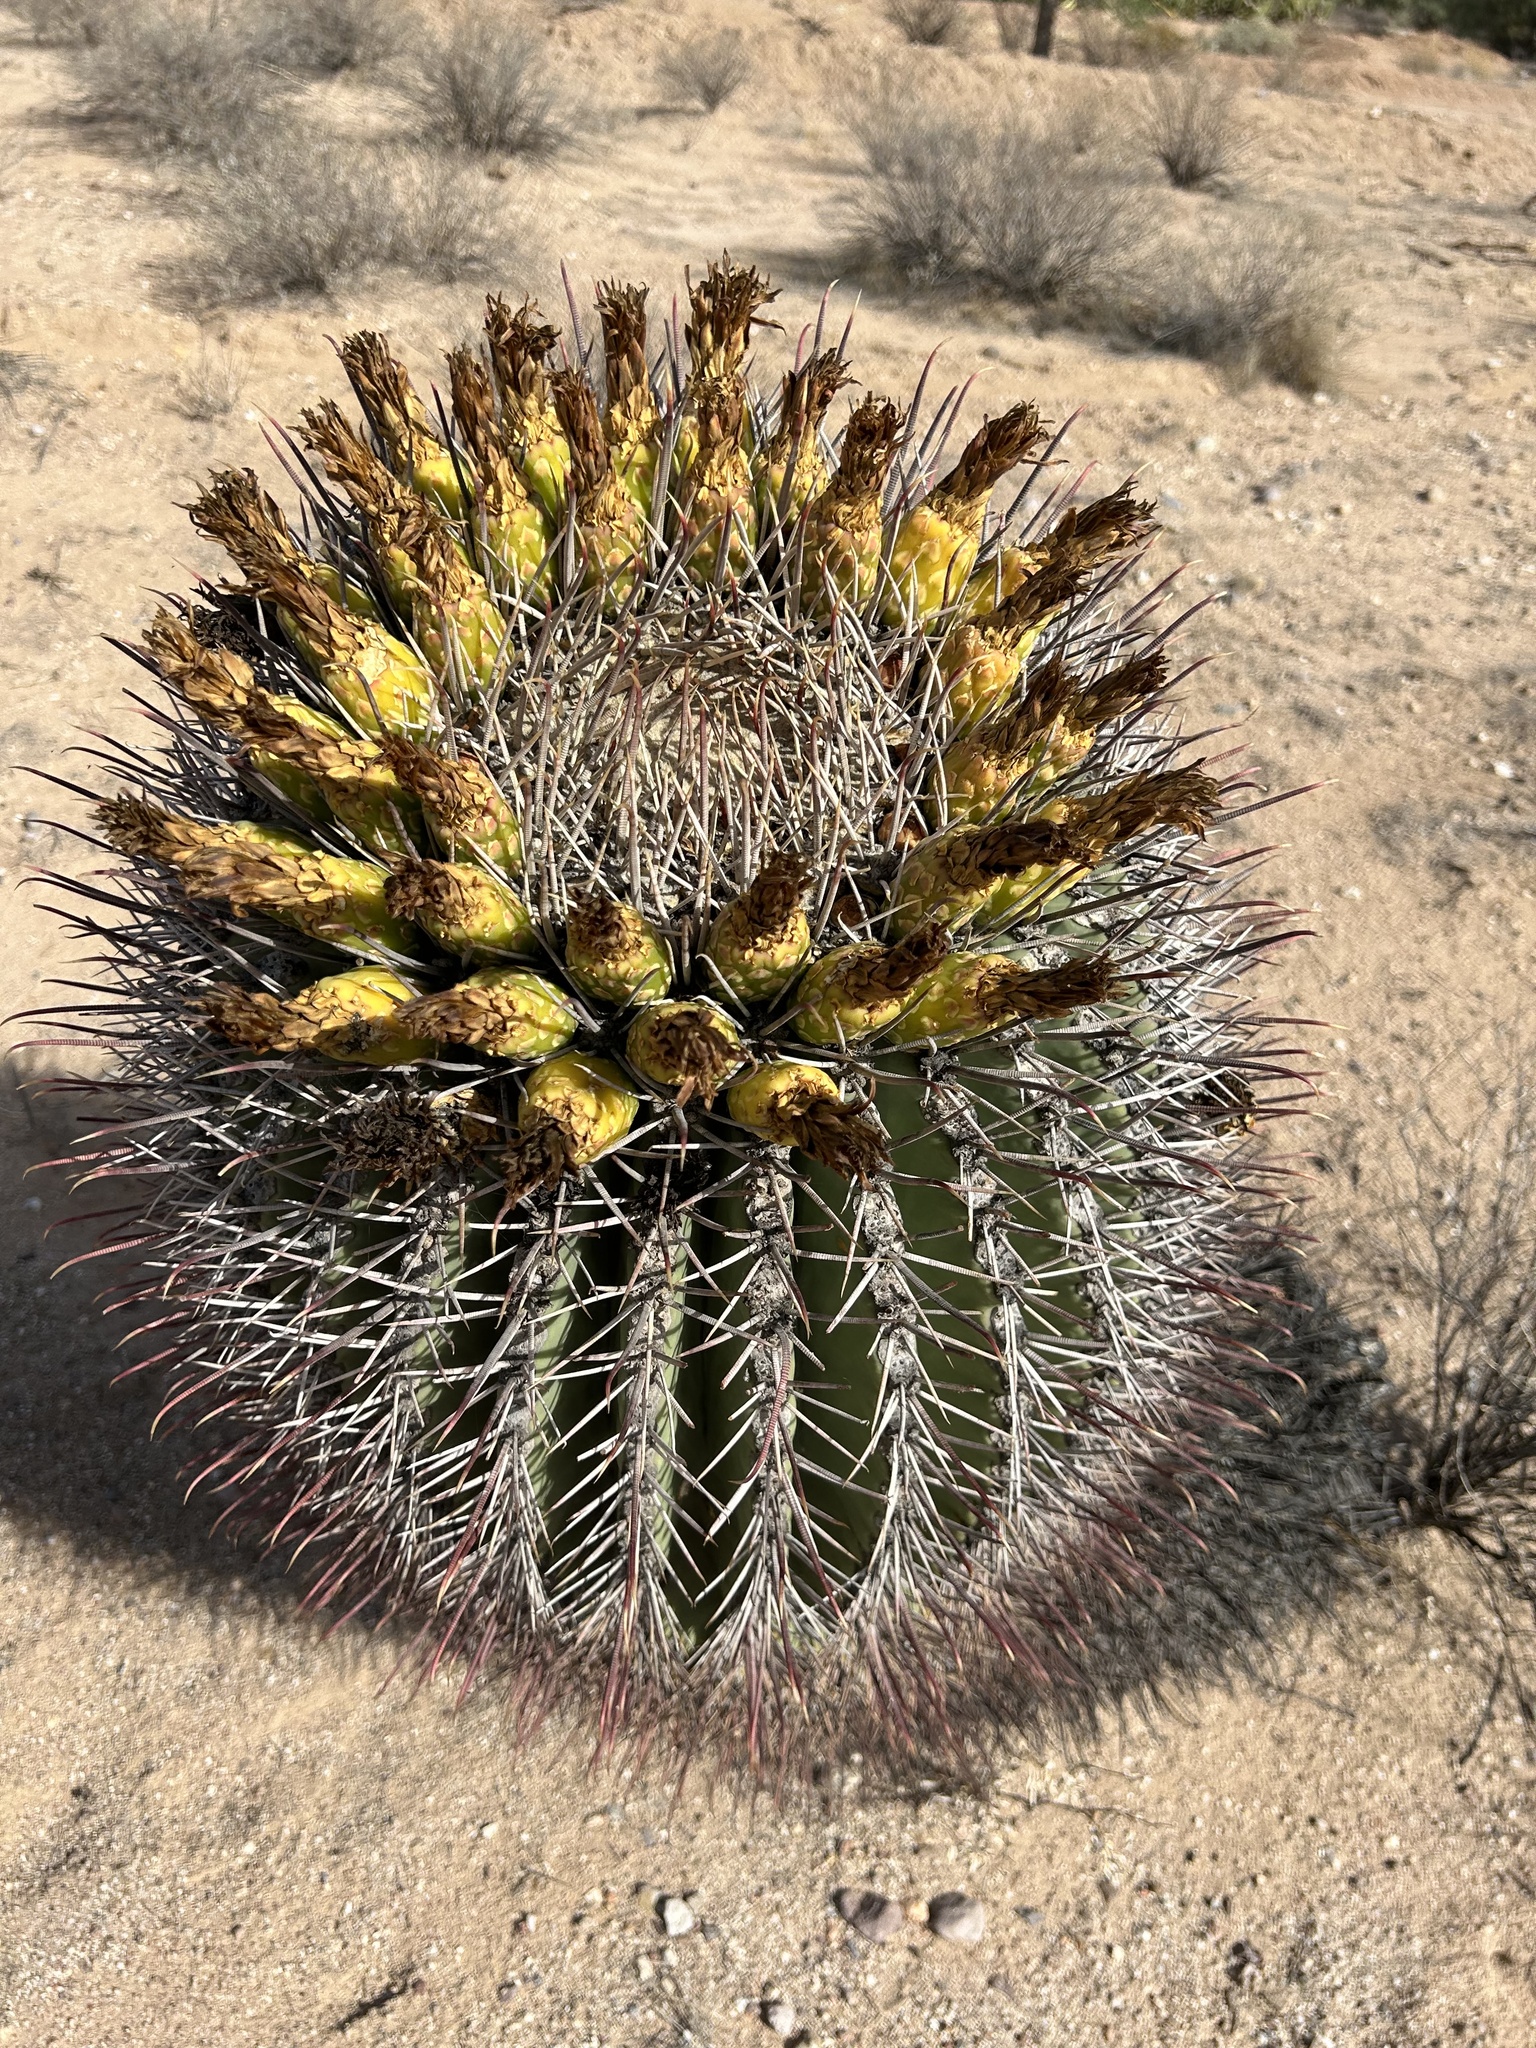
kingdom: Plantae
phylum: Tracheophyta
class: Magnoliopsida
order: Caryophyllales
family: Cactaceae
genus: Ferocactus
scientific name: Ferocactus emoryi
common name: Emory's barrel cactus
